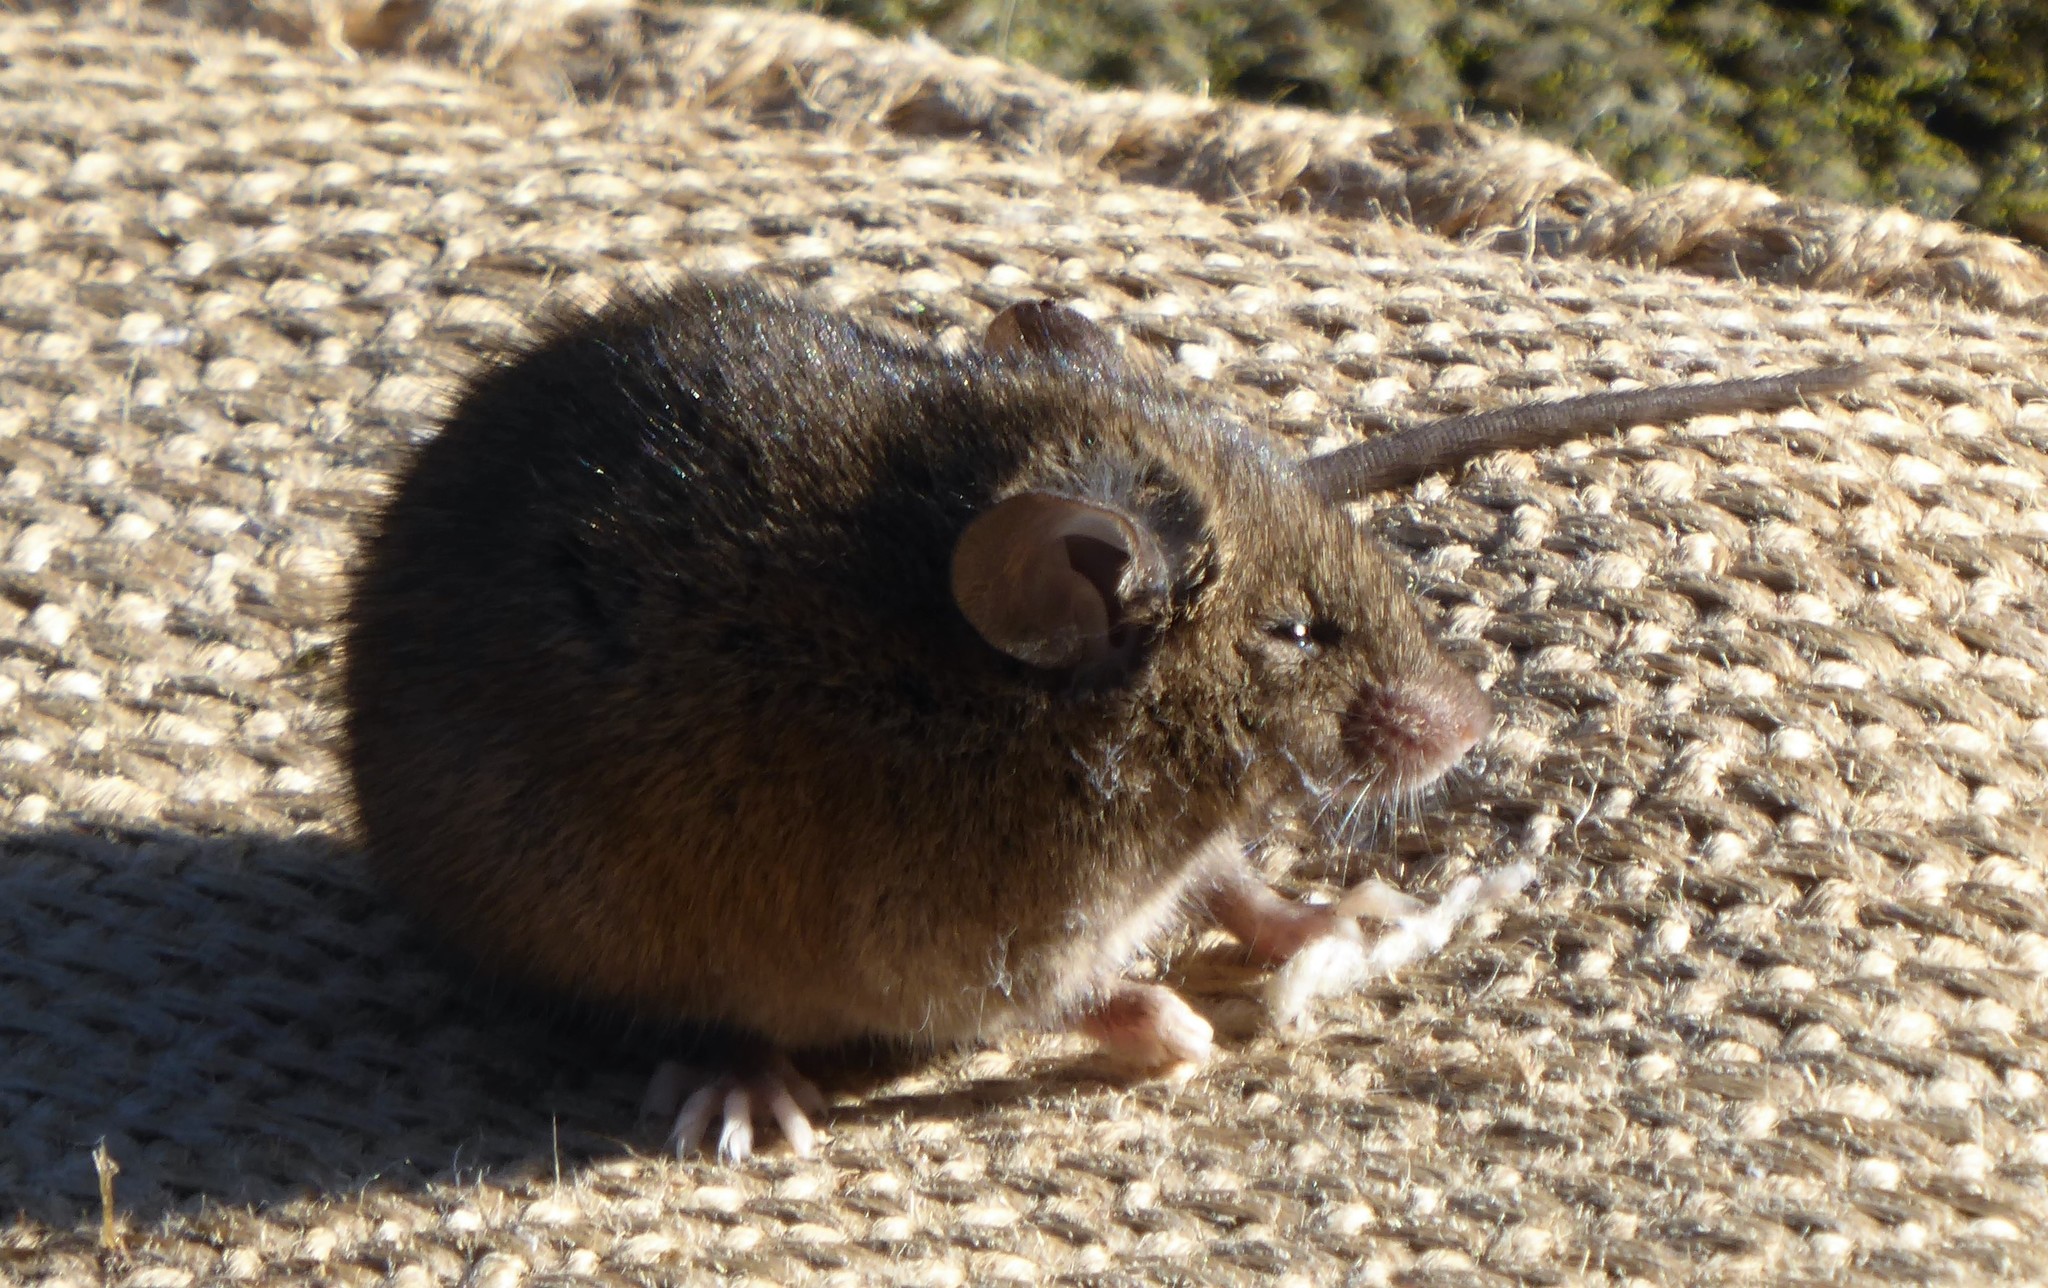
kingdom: Animalia
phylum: Chordata
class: Mammalia
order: Rodentia
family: Muridae
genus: Mus
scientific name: Mus musculus
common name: House mouse
